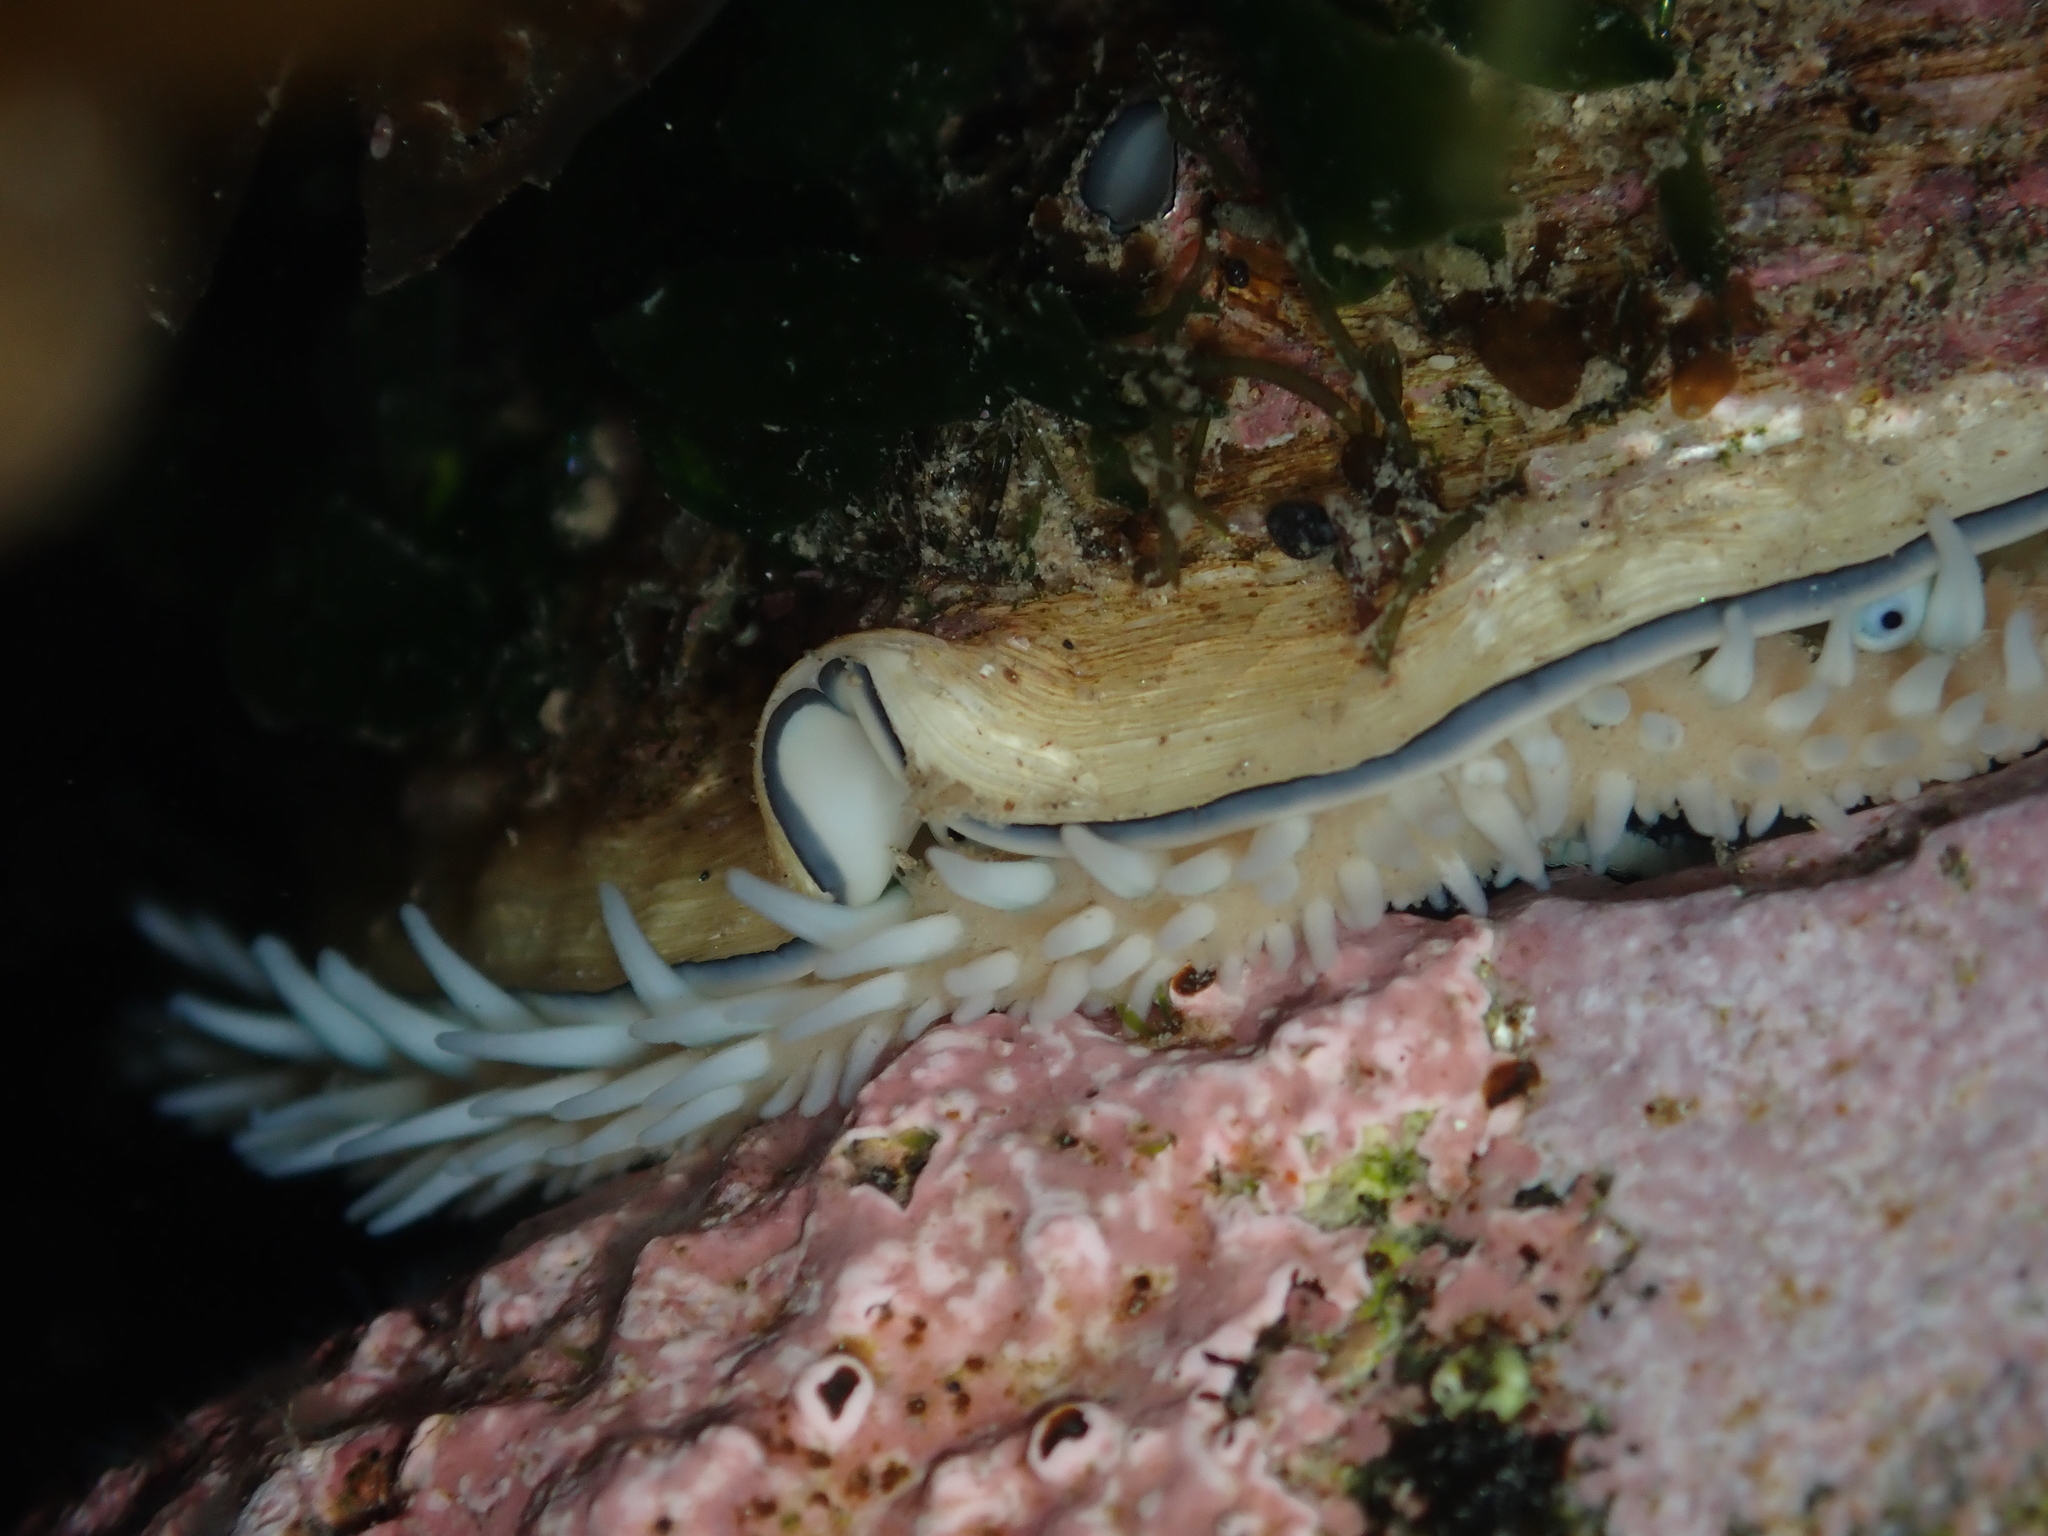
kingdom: Animalia
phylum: Mollusca
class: Gastropoda
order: Lepetellida
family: Haliotidae
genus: Haliotis
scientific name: Haliotis australis
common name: Silver abalone
